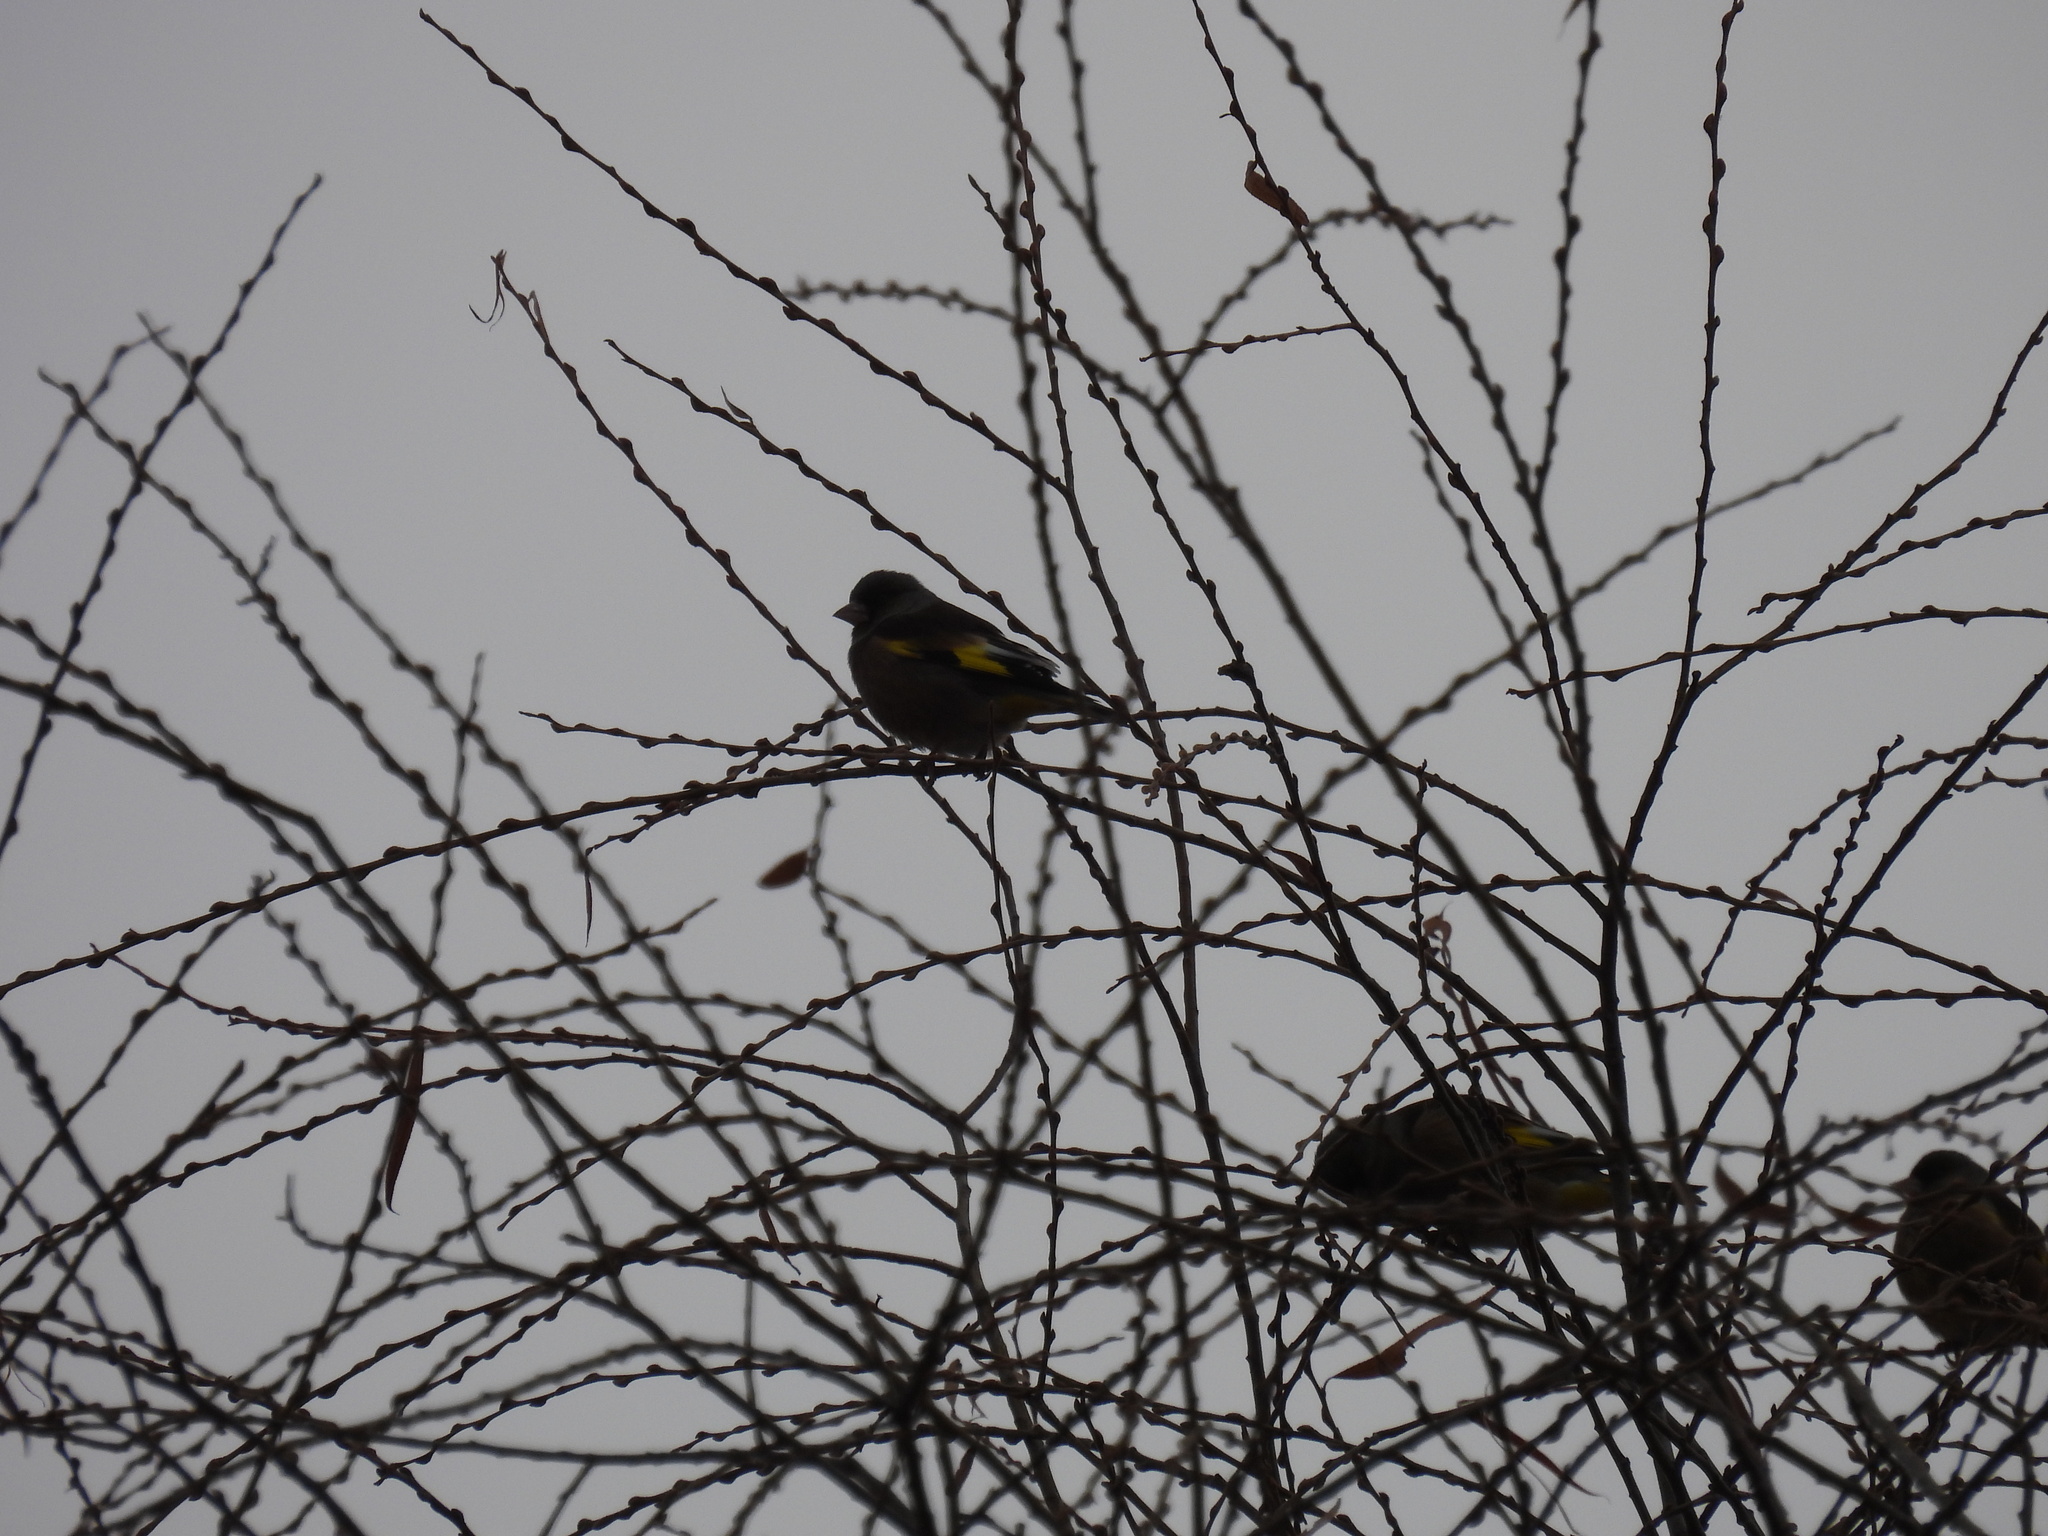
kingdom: Plantae
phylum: Tracheophyta
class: Liliopsida
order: Poales
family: Poaceae
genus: Chloris
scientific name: Chloris sinica
